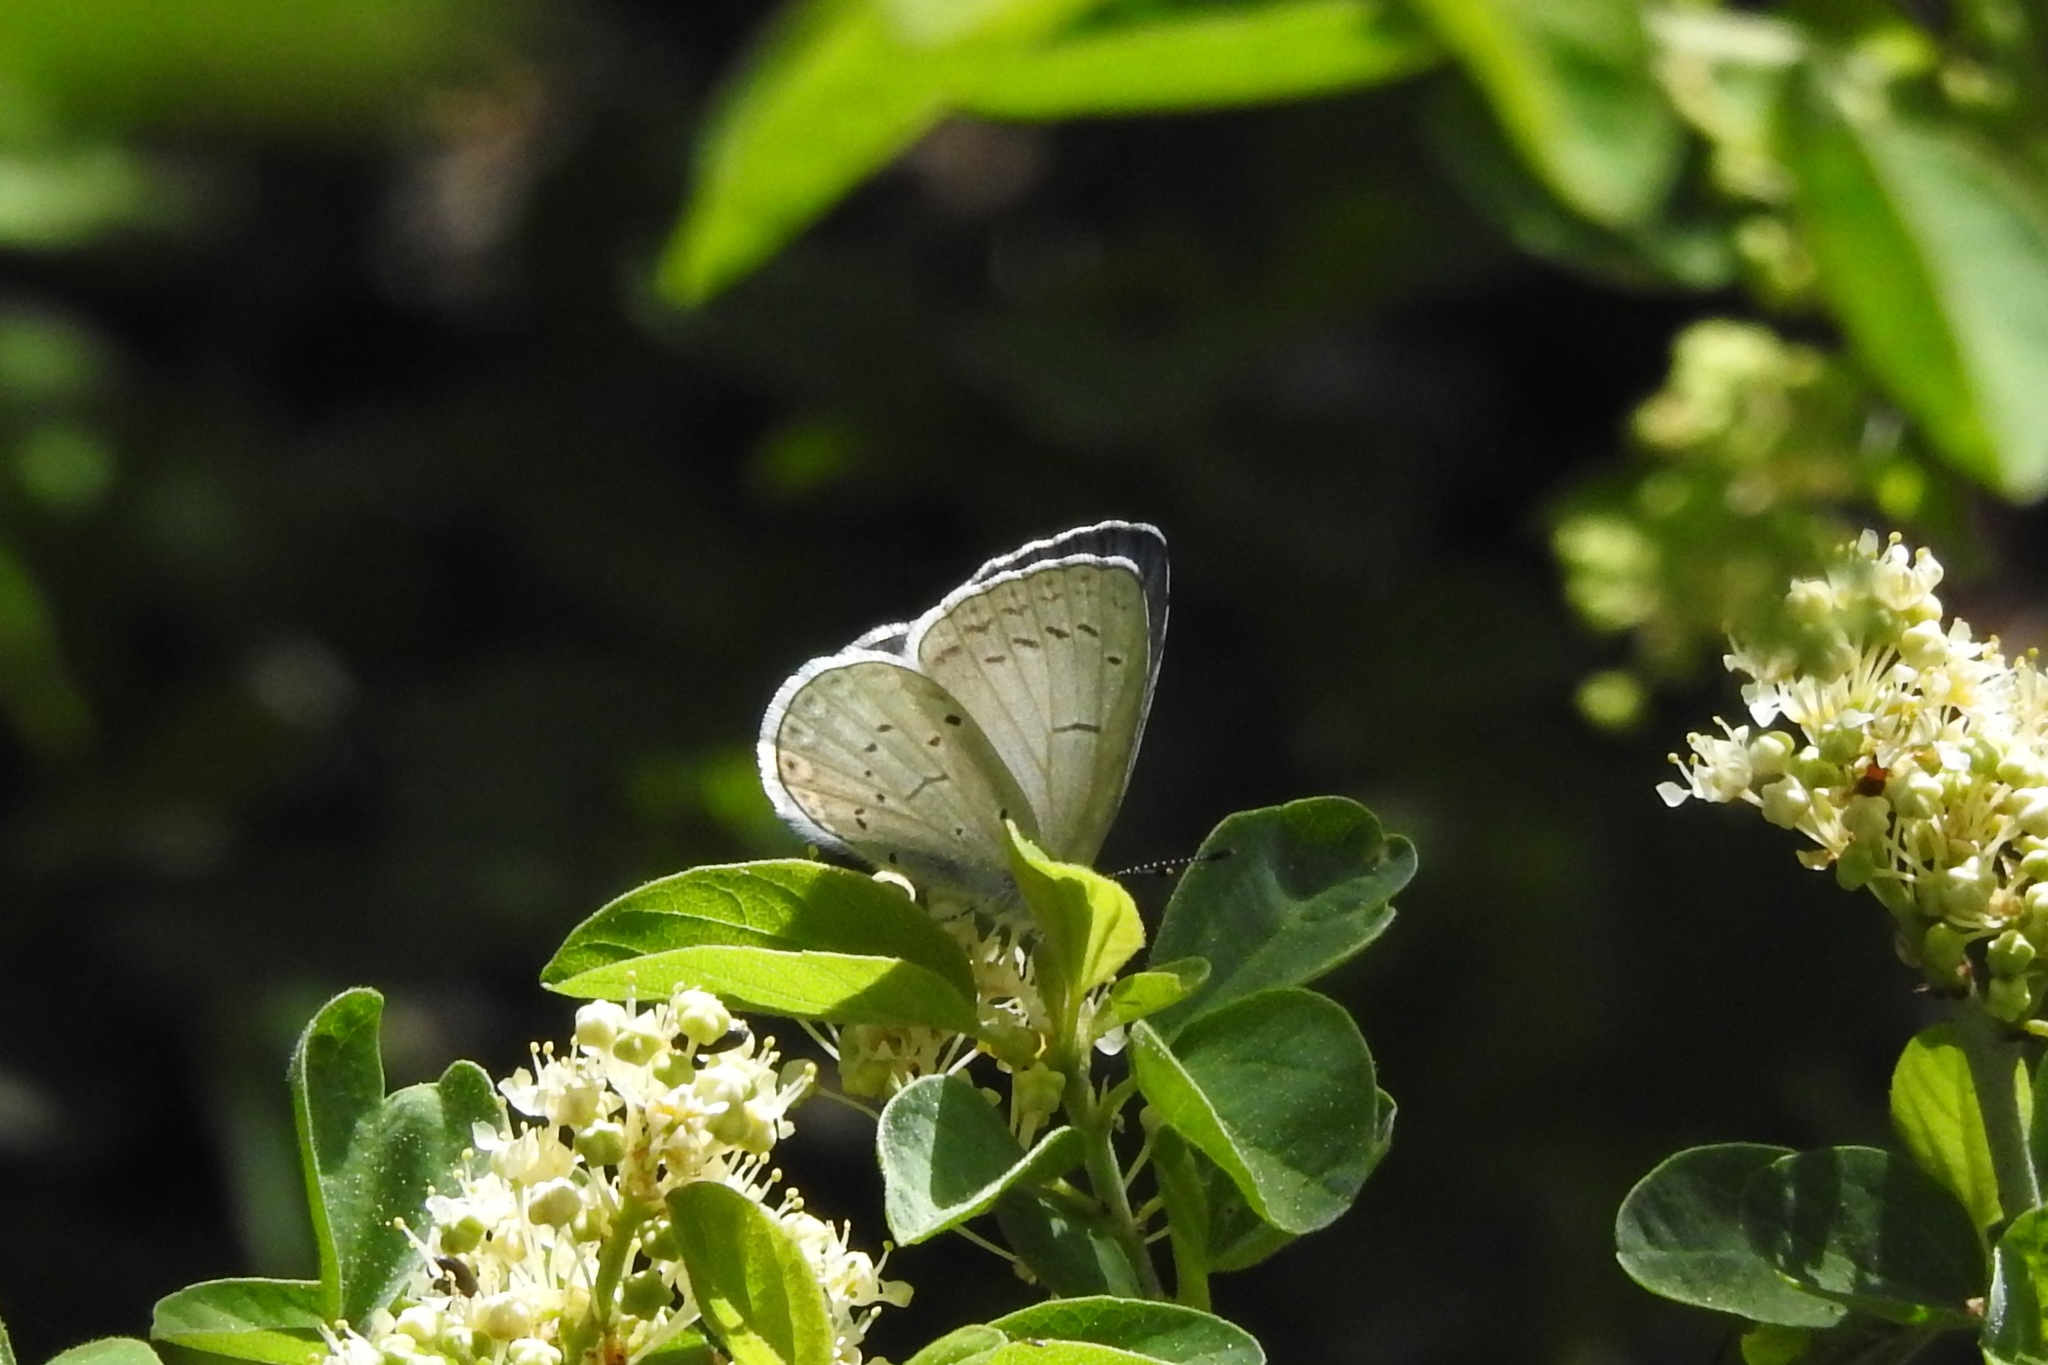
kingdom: Animalia
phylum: Arthropoda
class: Insecta
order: Lepidoptera
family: Lycaenidae
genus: Celastrina
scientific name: Celastrina ladon
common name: Spring azure
